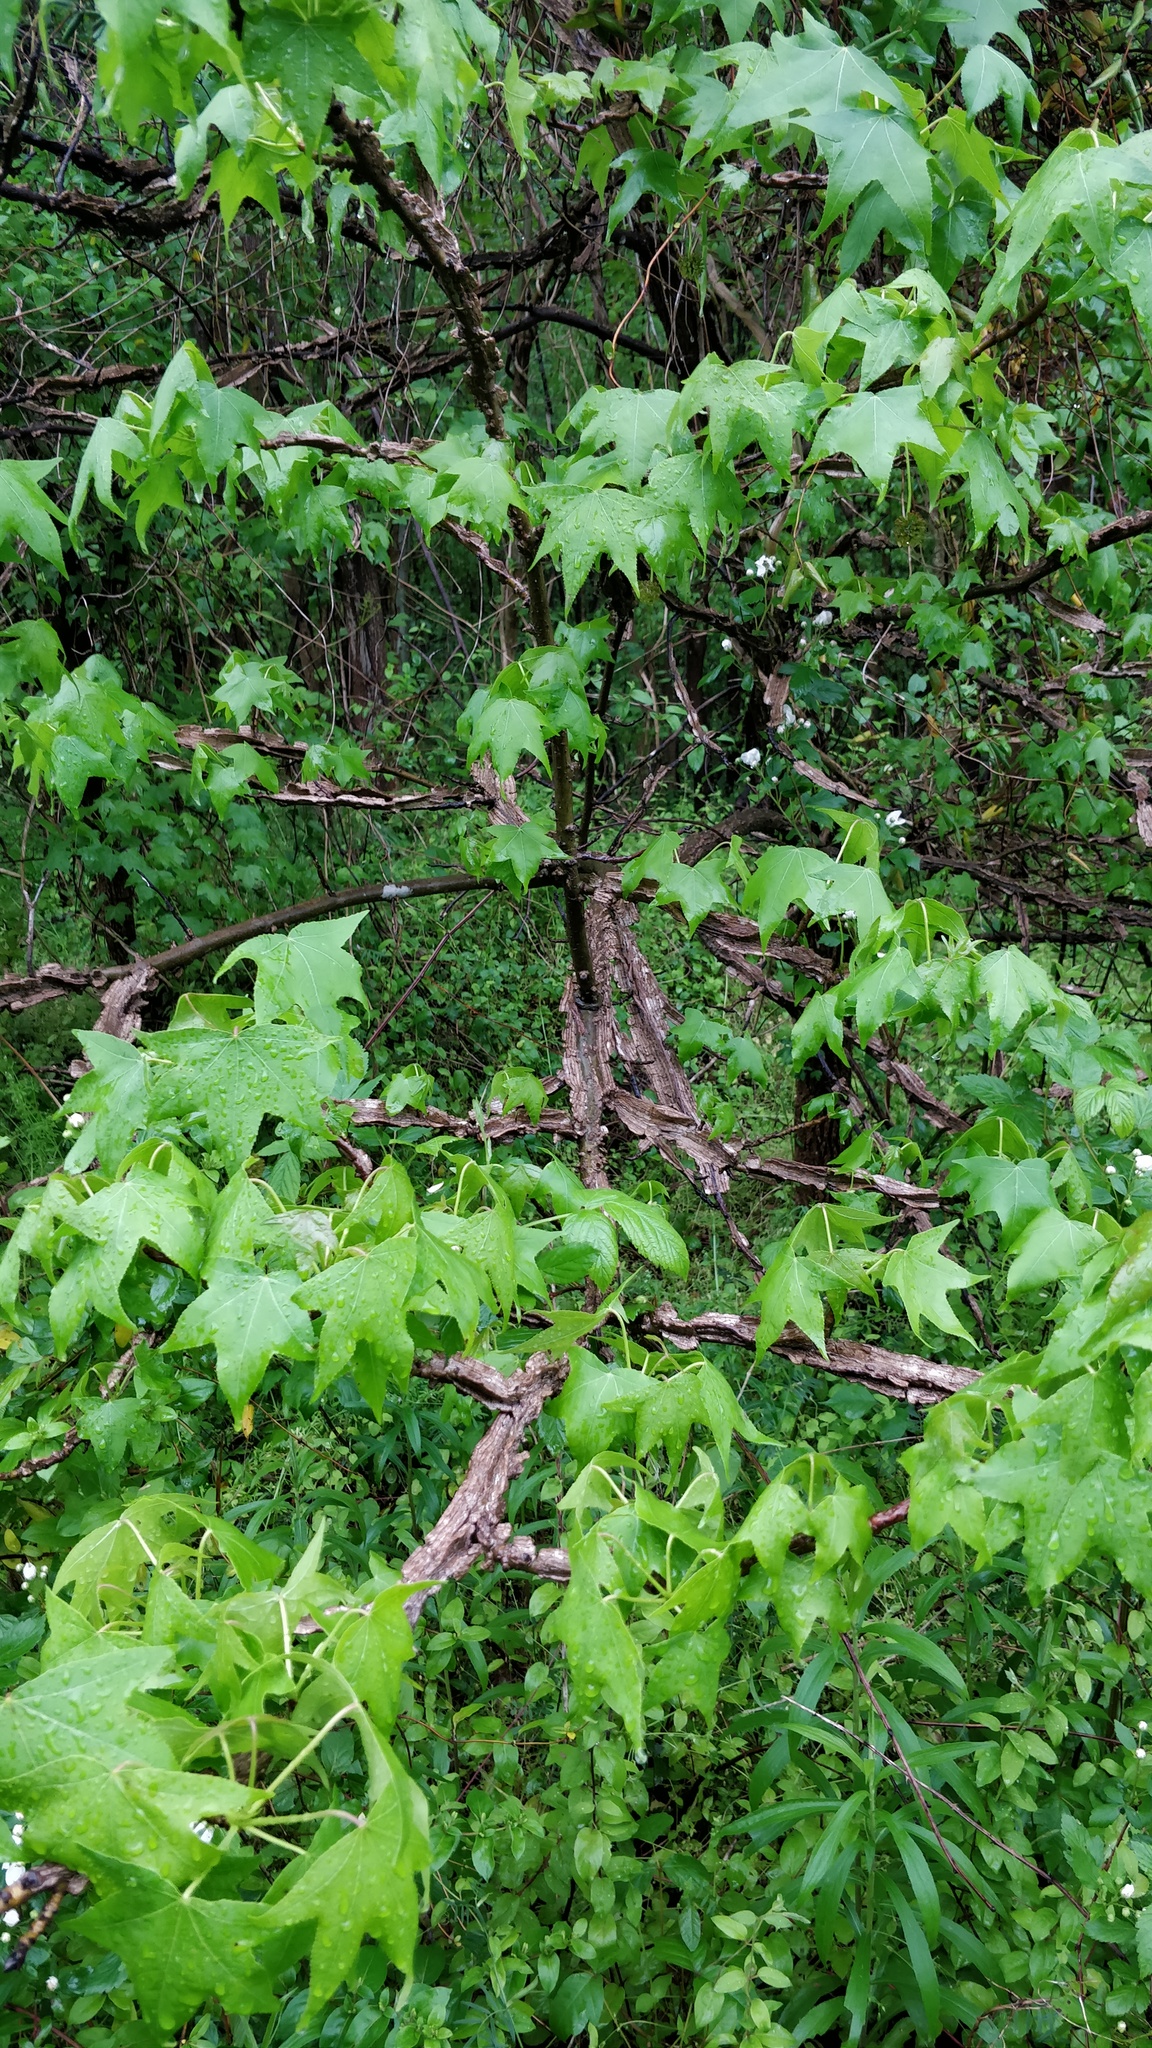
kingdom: Plantae
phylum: Tracheophyta
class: Magnoliopsida
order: Saxifragales
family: Altingiaceae
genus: Liquidambar
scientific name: Liquidambar styraciflua
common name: Sweet gum
